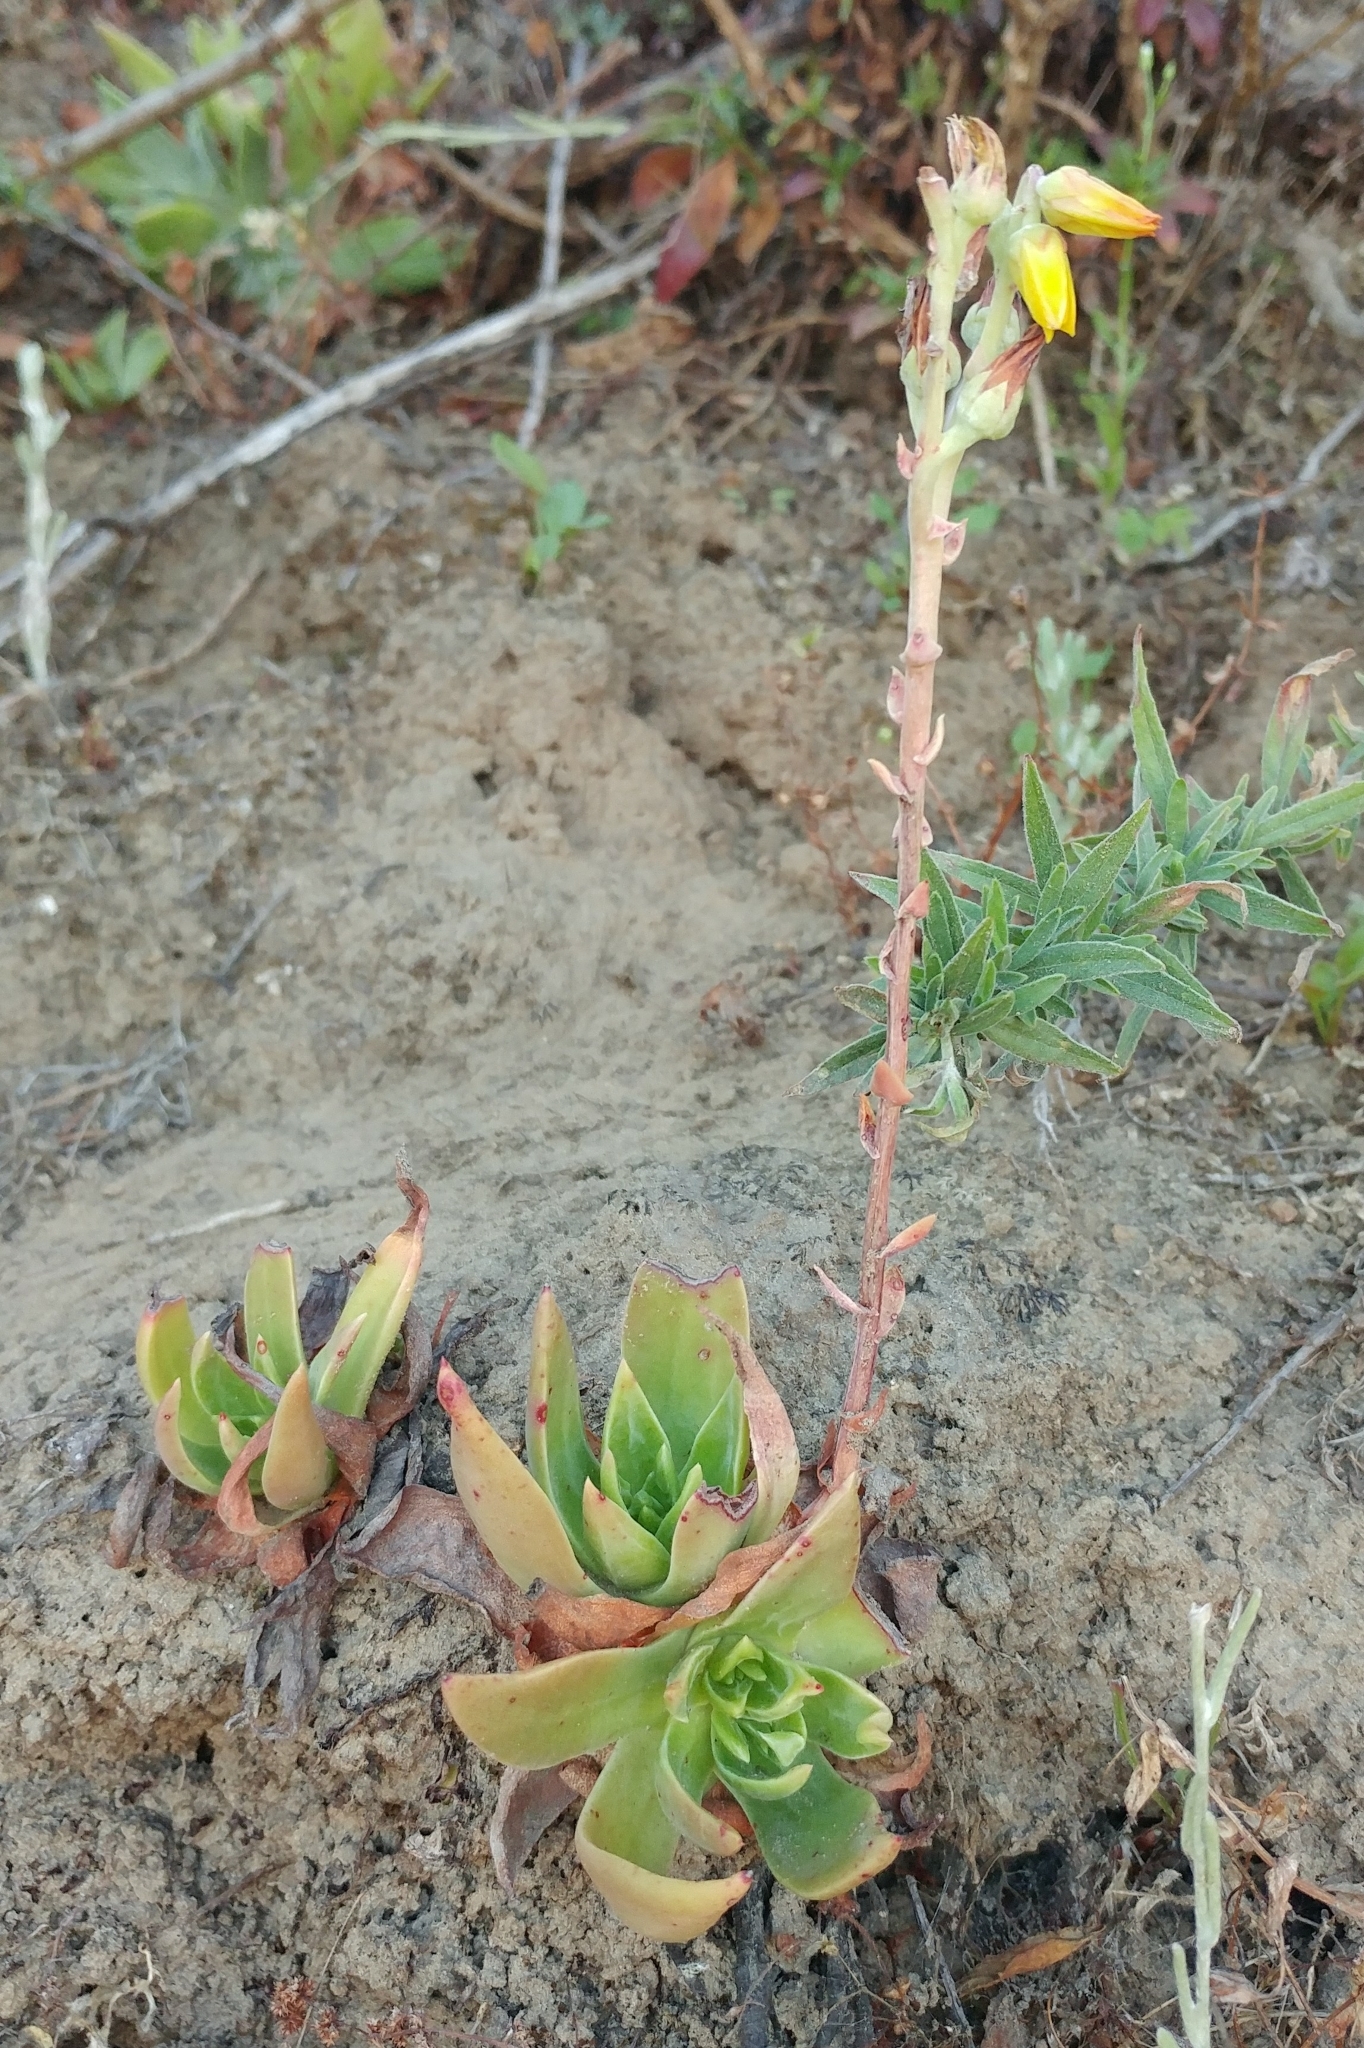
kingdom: Plantae
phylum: Tracheophyta
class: Magnoliopsida
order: Saxifragales
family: Crassulaceae
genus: Dudleya
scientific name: Dudleya caespitosa
